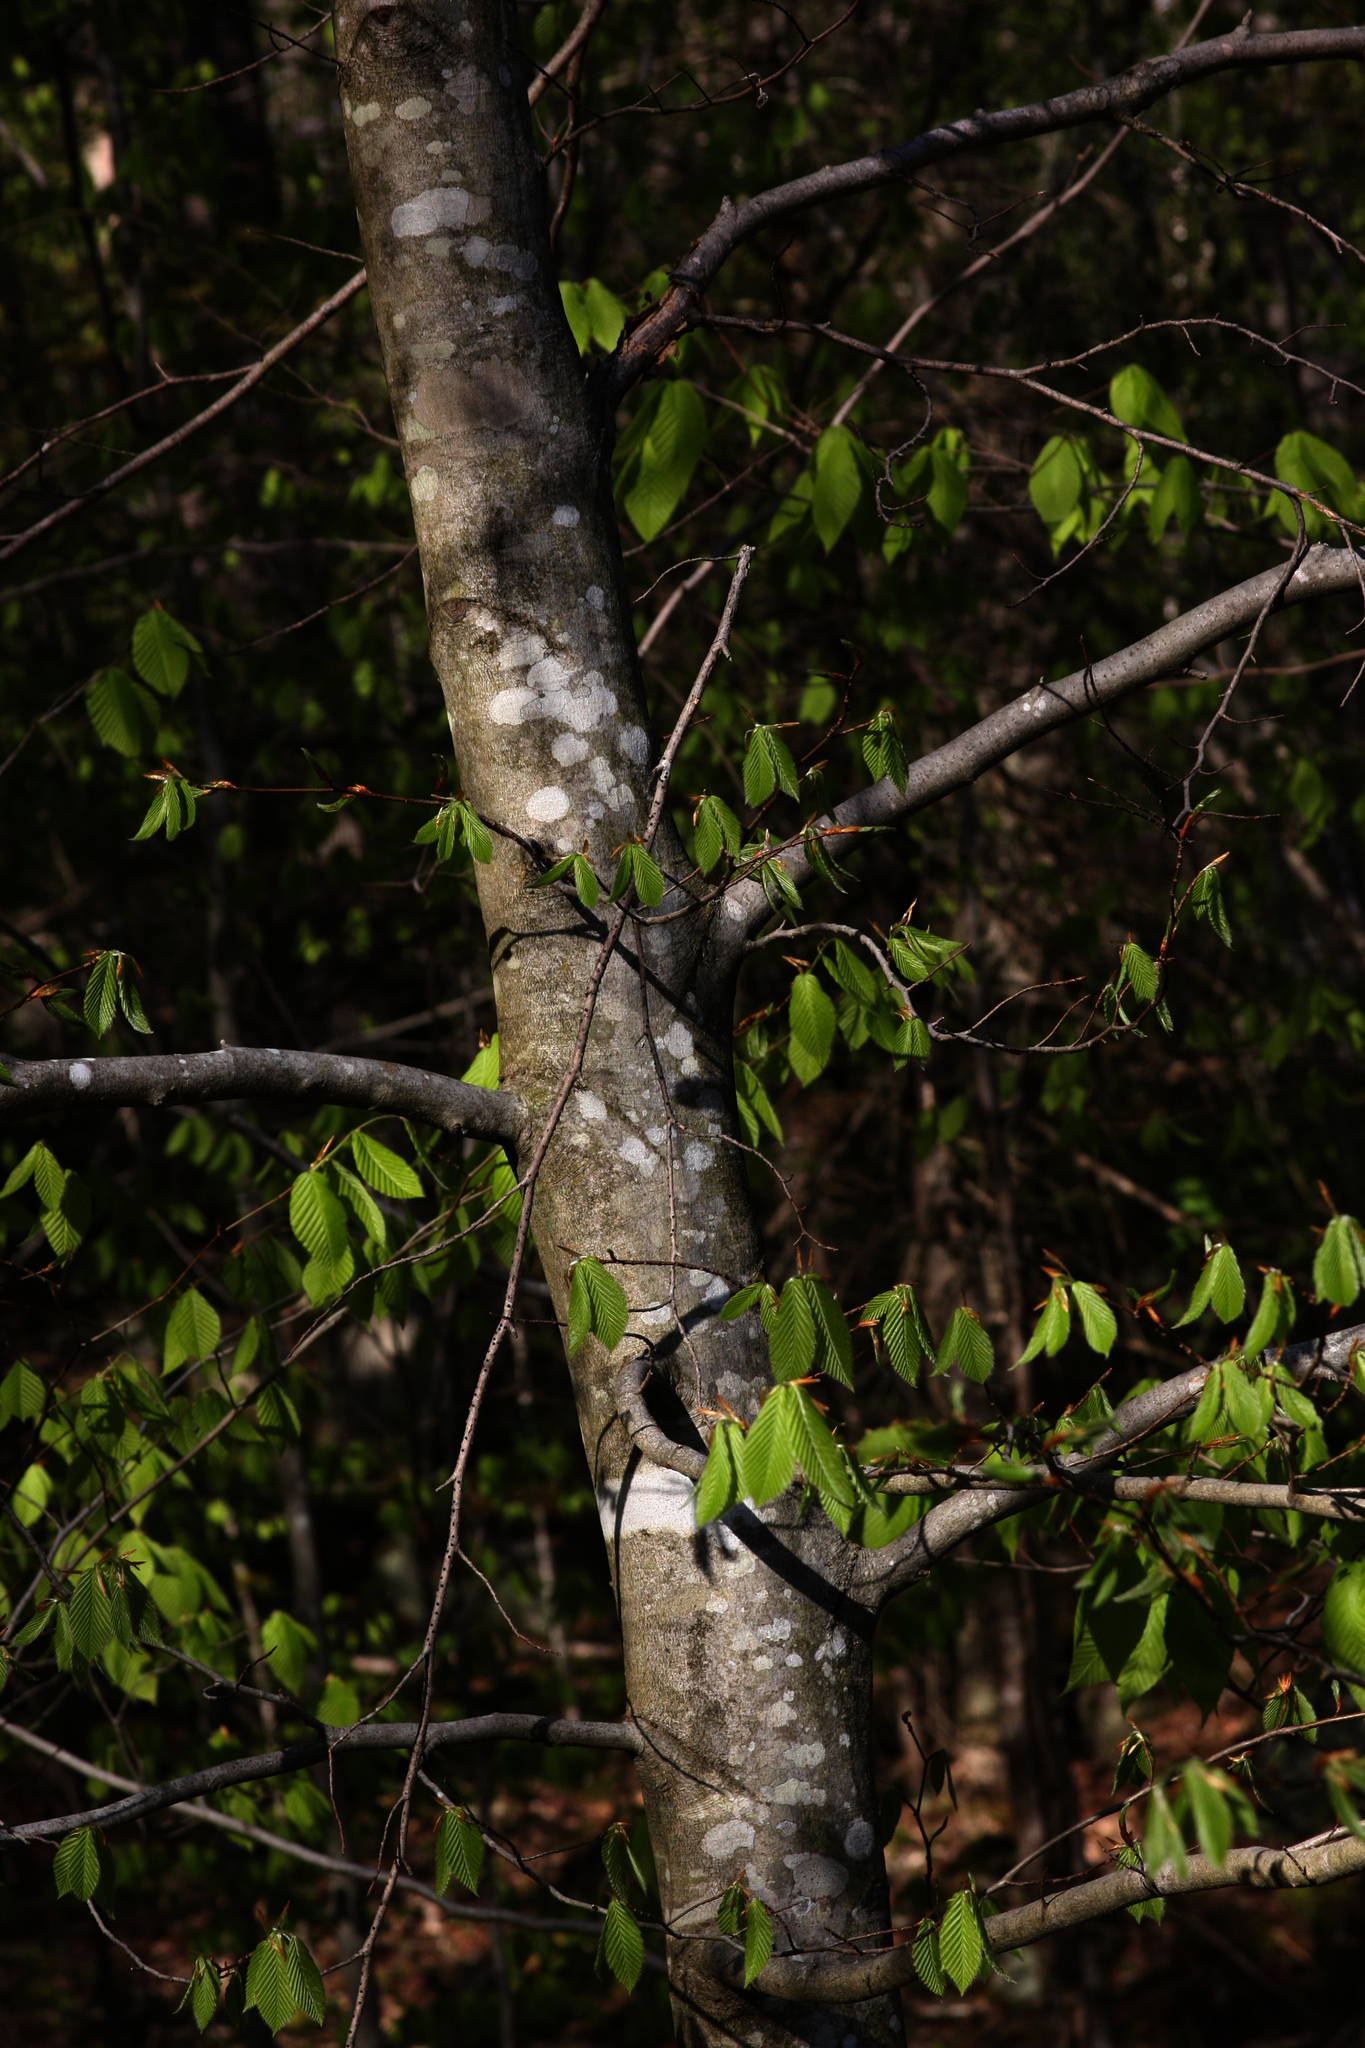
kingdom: Plantae
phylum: Tracheophyta
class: Magnoliopsida
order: Fagales
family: Fagaceae
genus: Fagus
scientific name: Fagus grandifolia
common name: American beech
